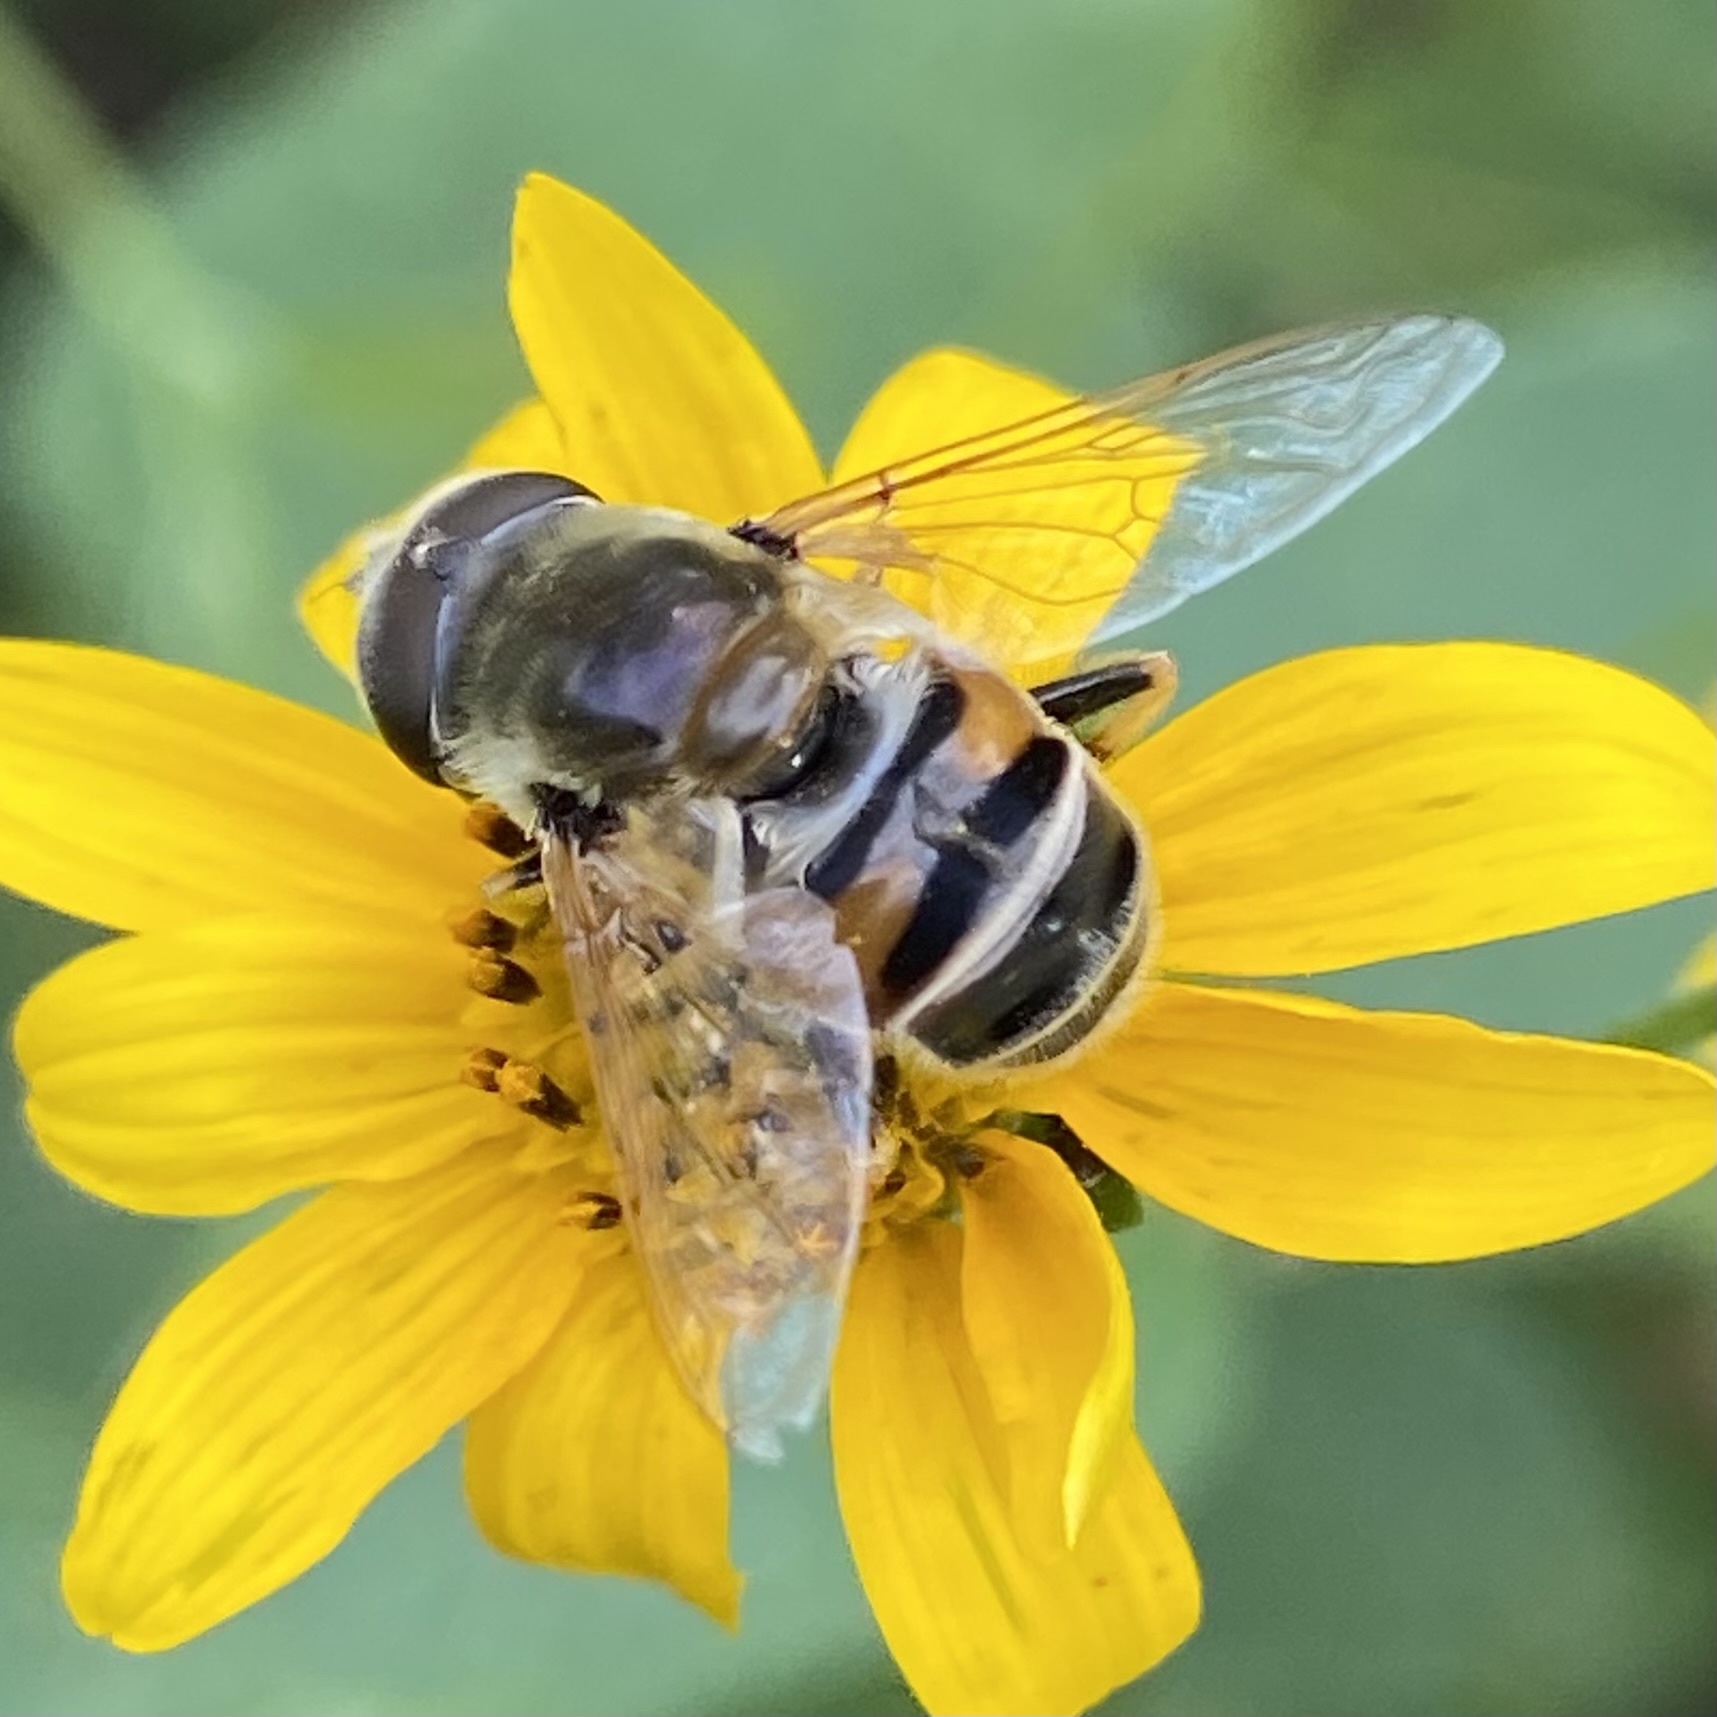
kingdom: Animalia
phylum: Arthropoda
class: Insecta
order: Diptera
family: Syrphidae
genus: Eristalis
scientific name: Eristalis stipator
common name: Yellow-shouldered drone fly
